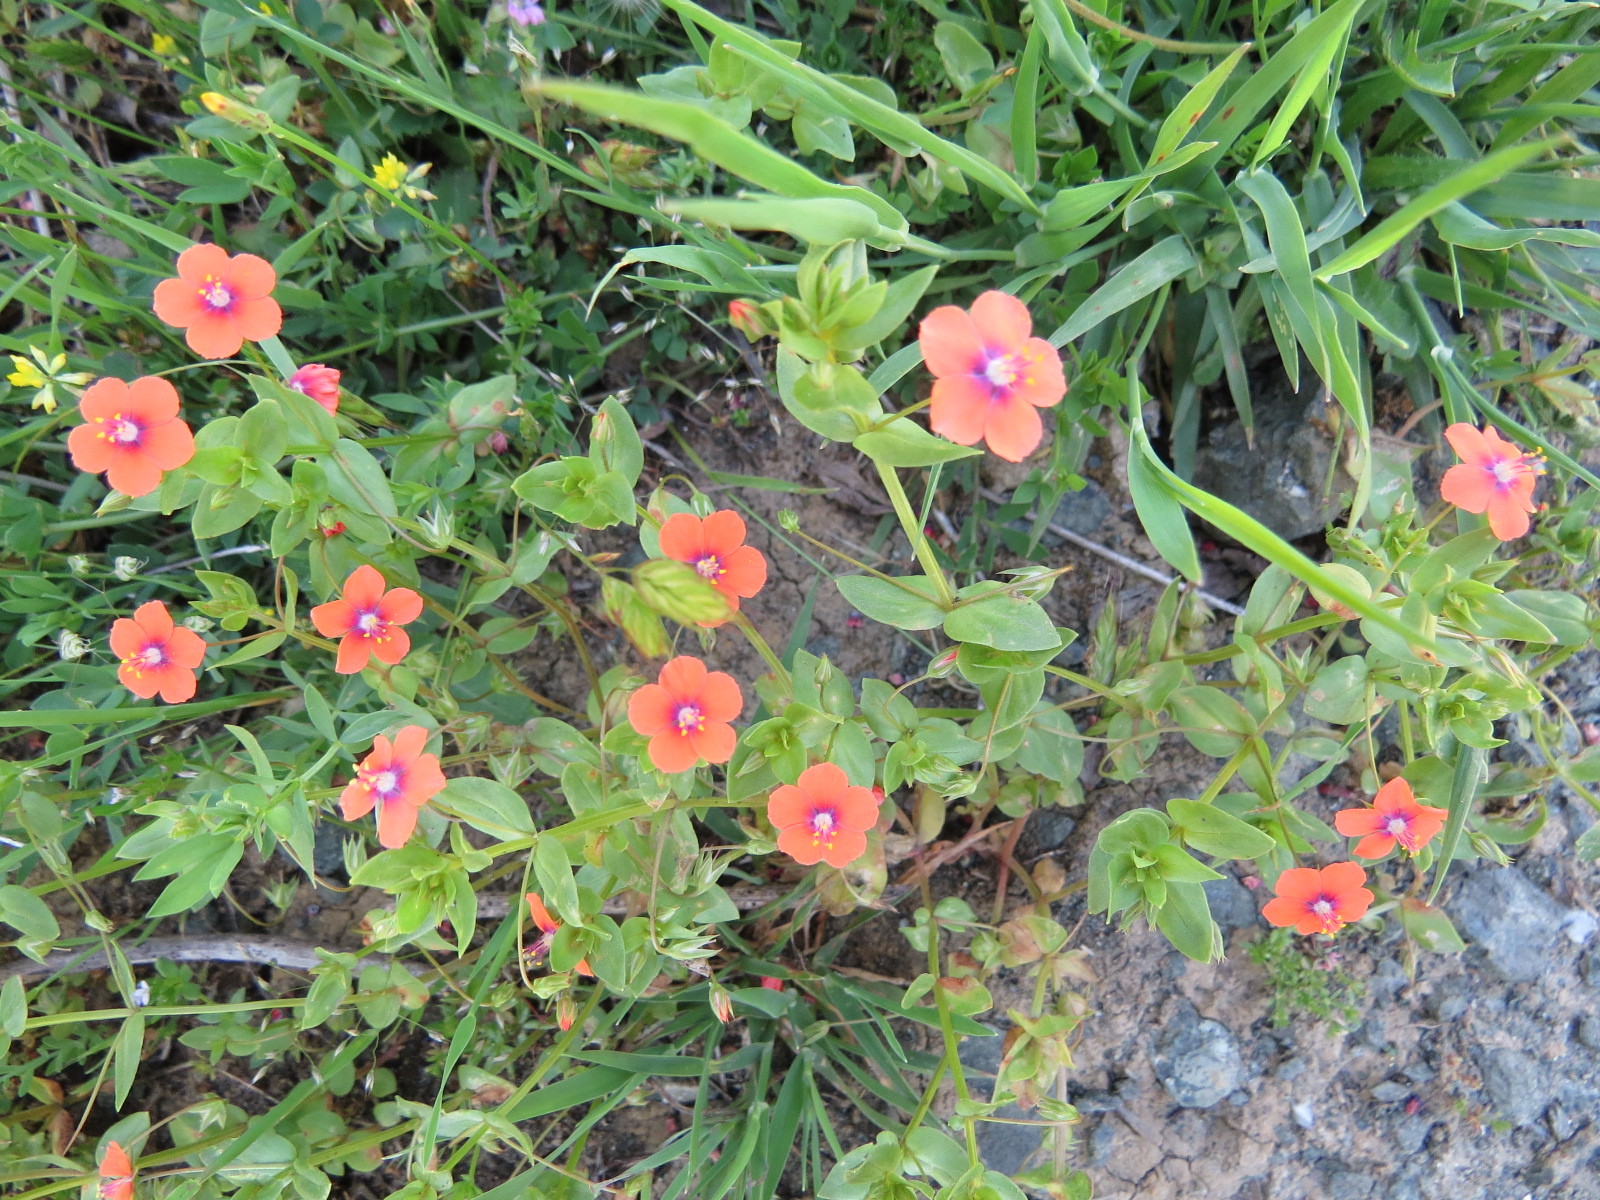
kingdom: Plantae
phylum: Tracheophyta
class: Magnoliopsida
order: Ericales
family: Primulaceae
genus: Lysimachia
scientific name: Lysimachia arvensis
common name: Scarlet pimpernel
